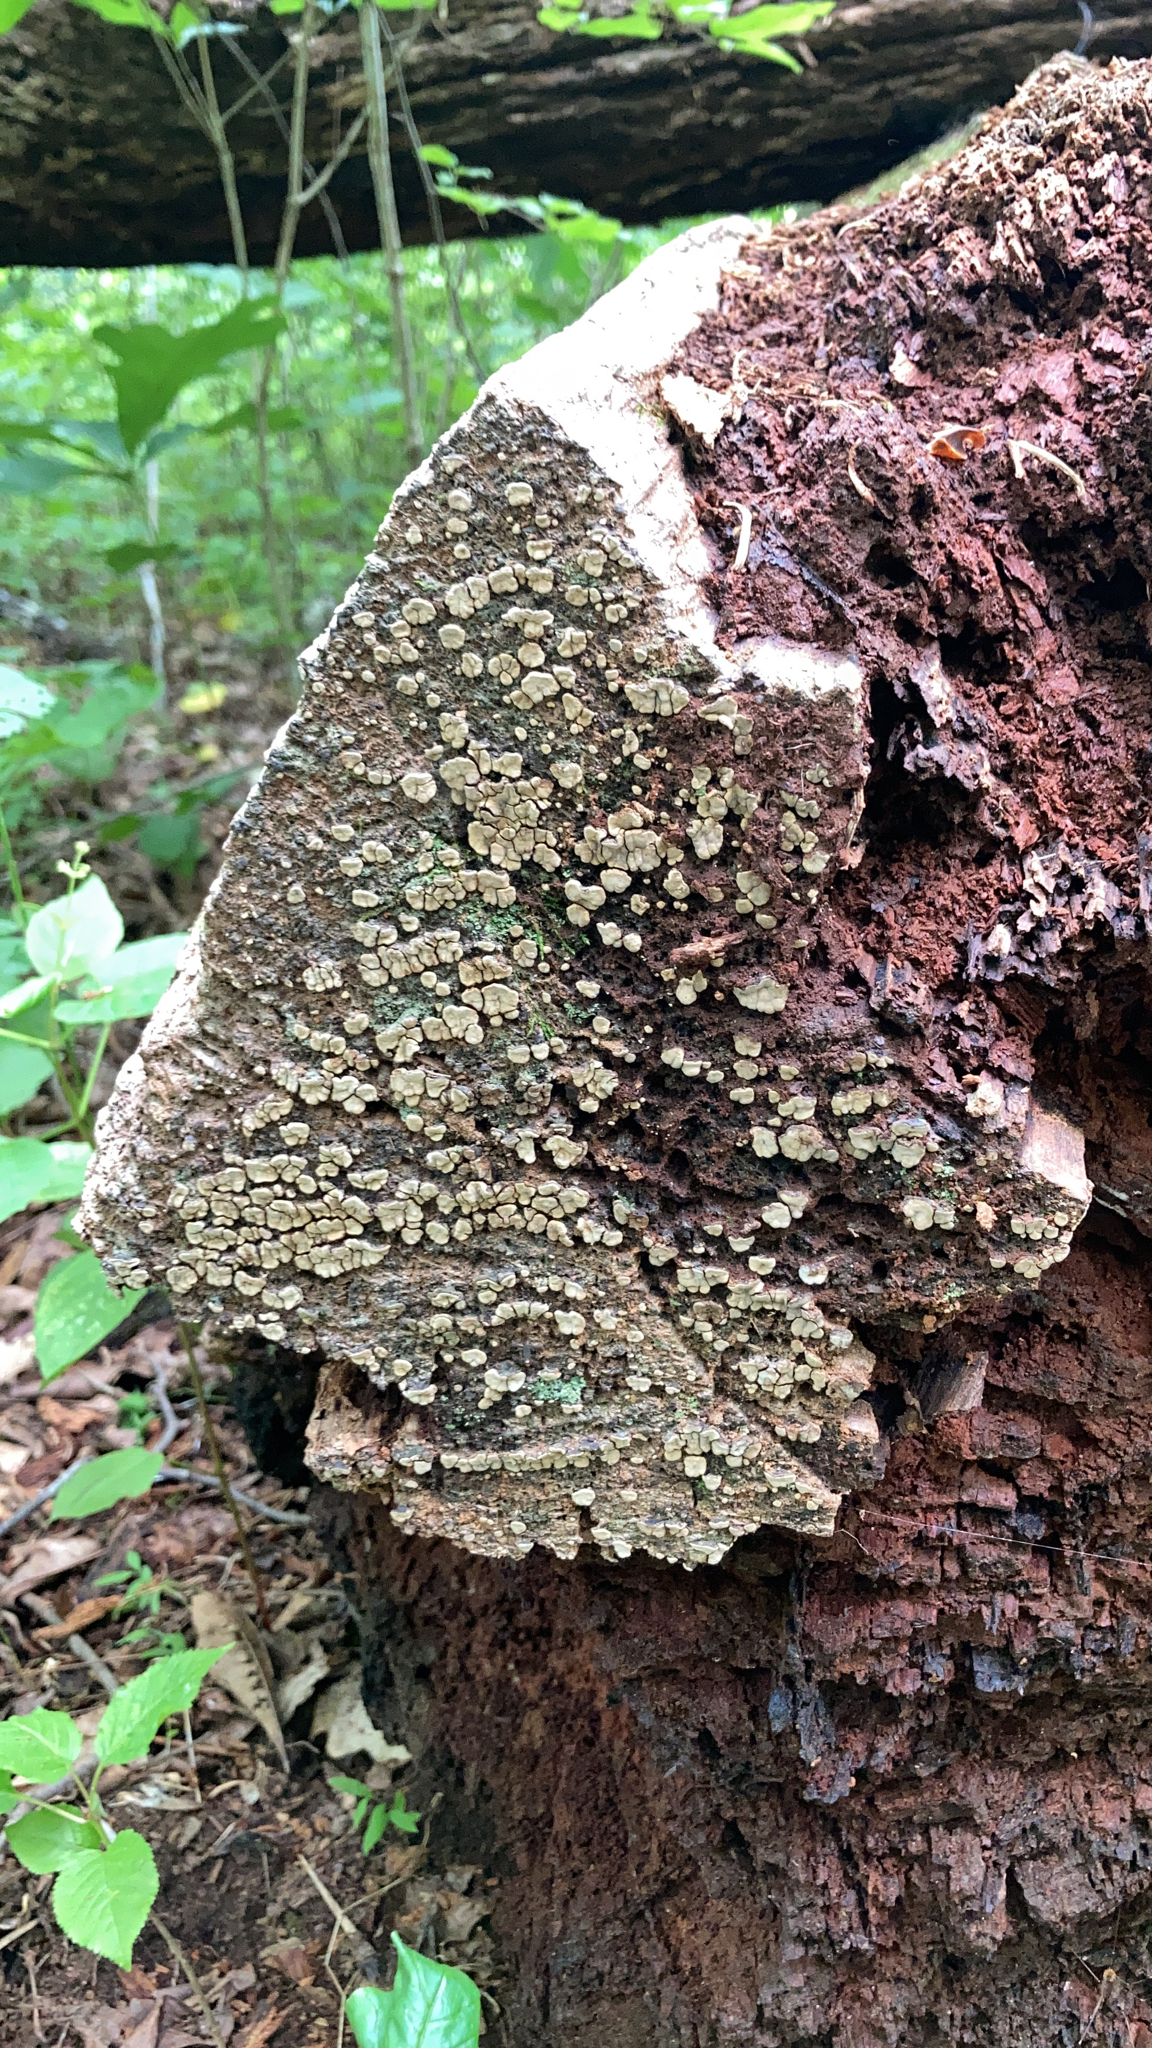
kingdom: Fungi
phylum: Basidiomycota
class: Agaricomycetes
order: Russulales
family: Stereaceae
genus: Xylobolus
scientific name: Xylobolus frustulatus
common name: Ceramic parchment
